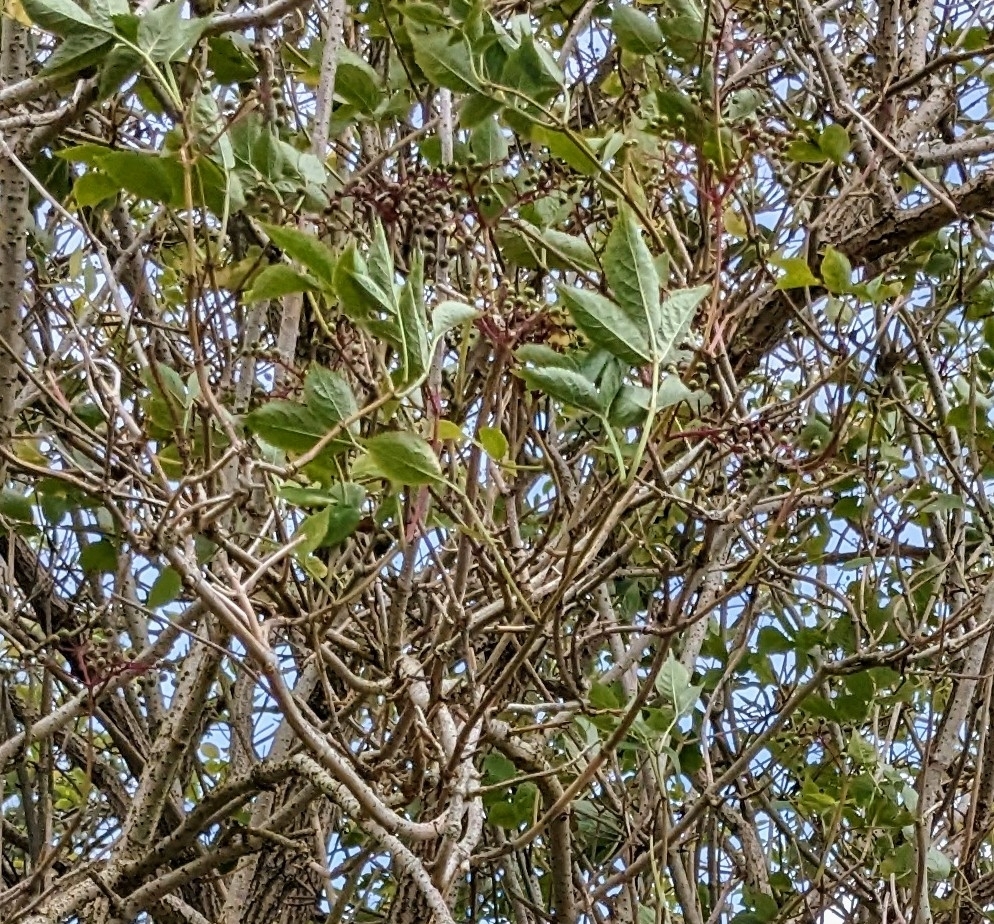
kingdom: Plantae
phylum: Tracheophyta
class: Magnoliopsida
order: Dipsacales
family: Viburnaceae
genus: Sambucus
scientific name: Sambucus nigra
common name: Elder
